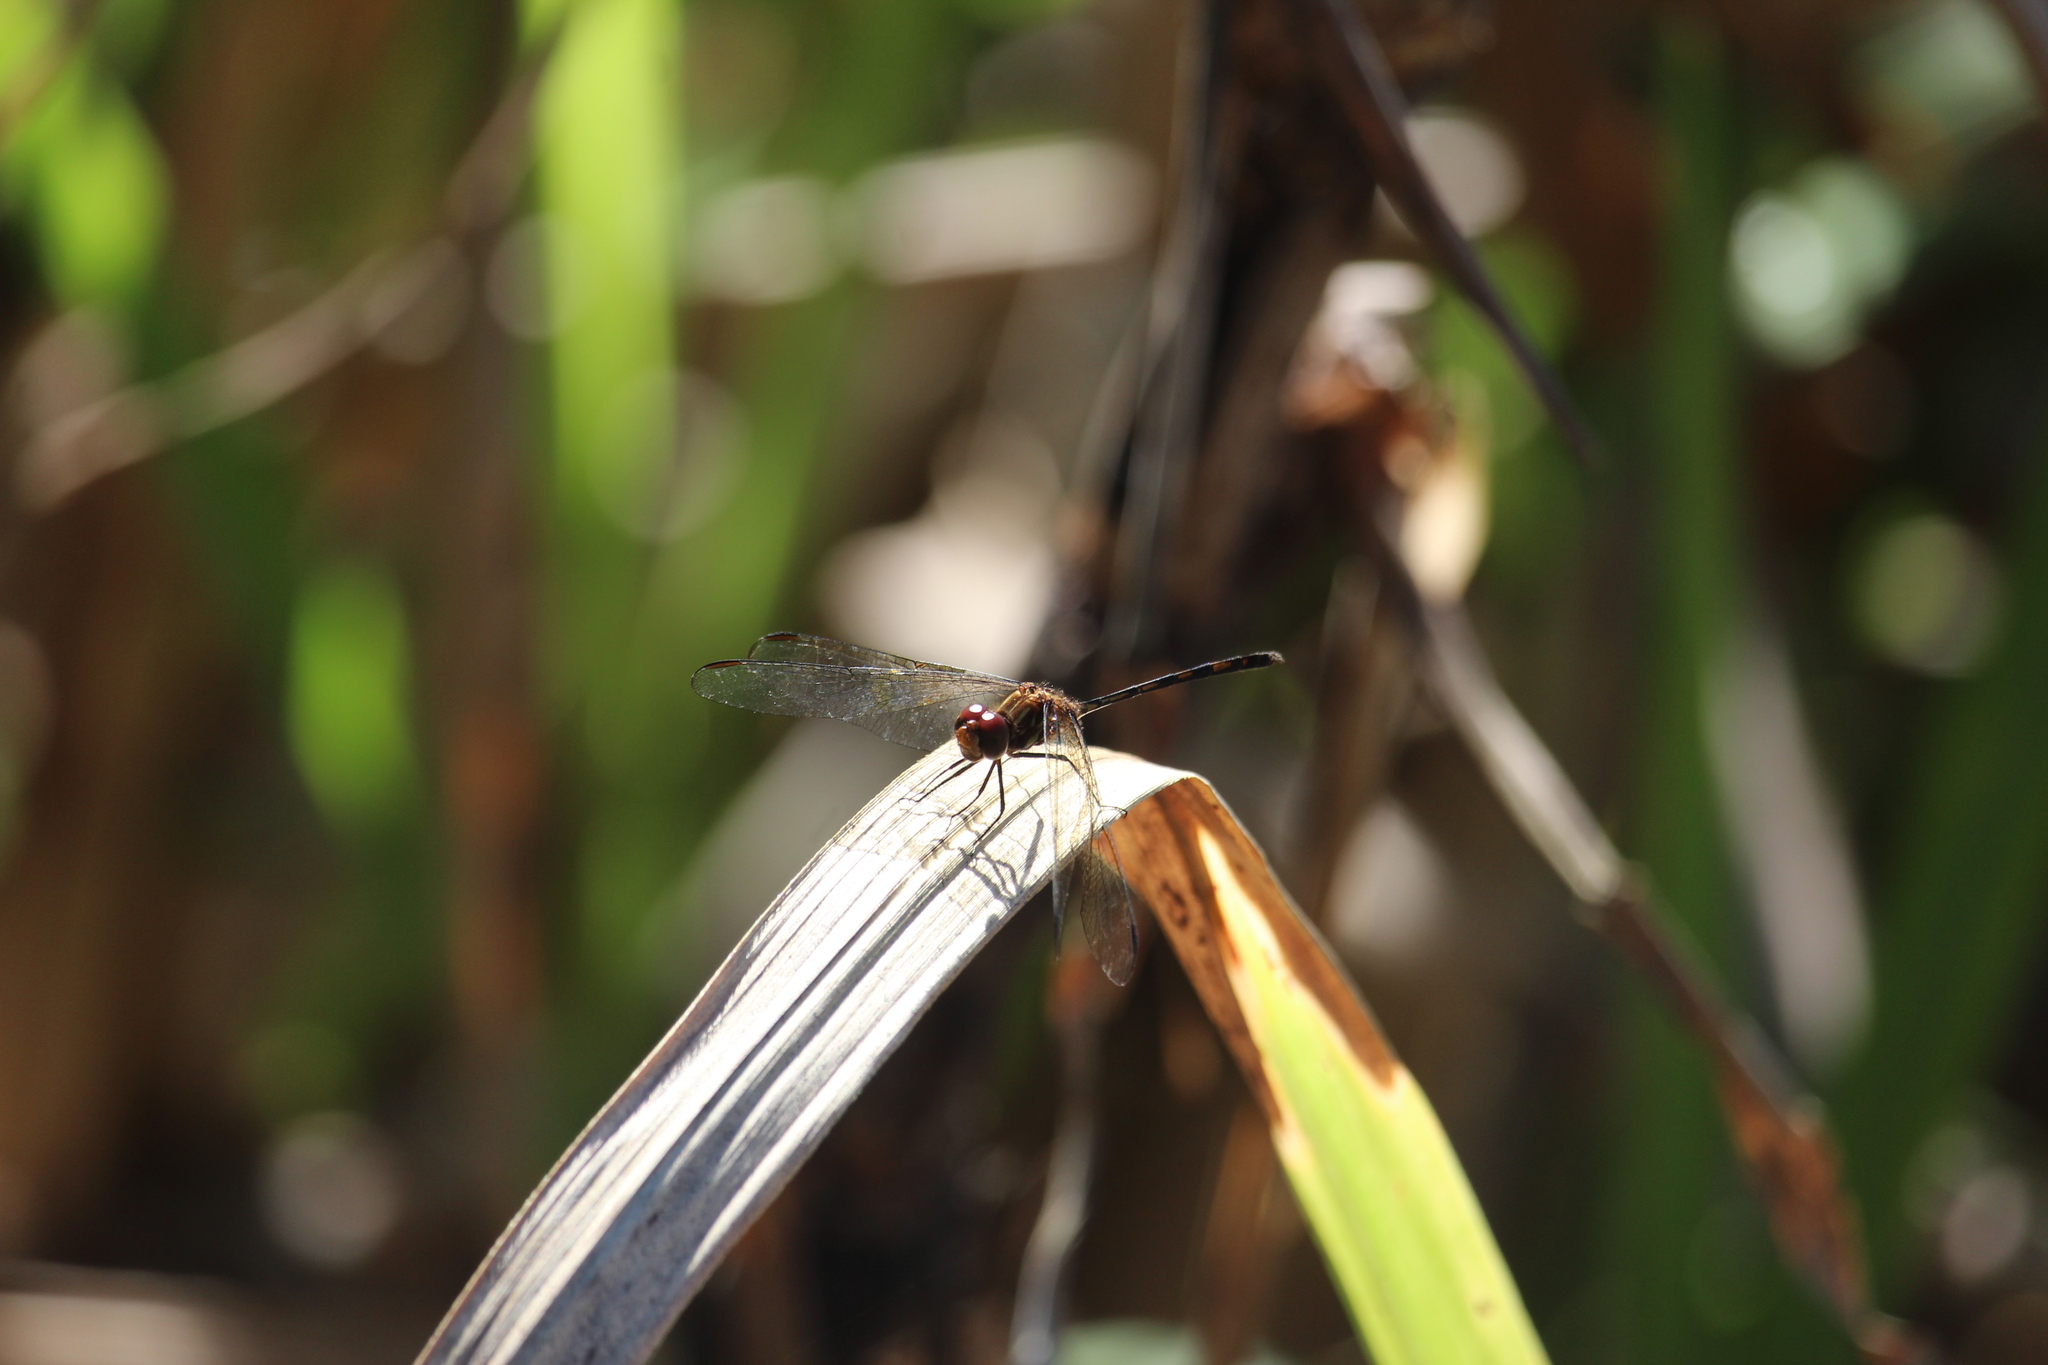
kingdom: Animalia
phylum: Arthropoda
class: Insecta
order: Odonata
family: Libellulidae
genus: Dythemis
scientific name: Dythemis sterilis
